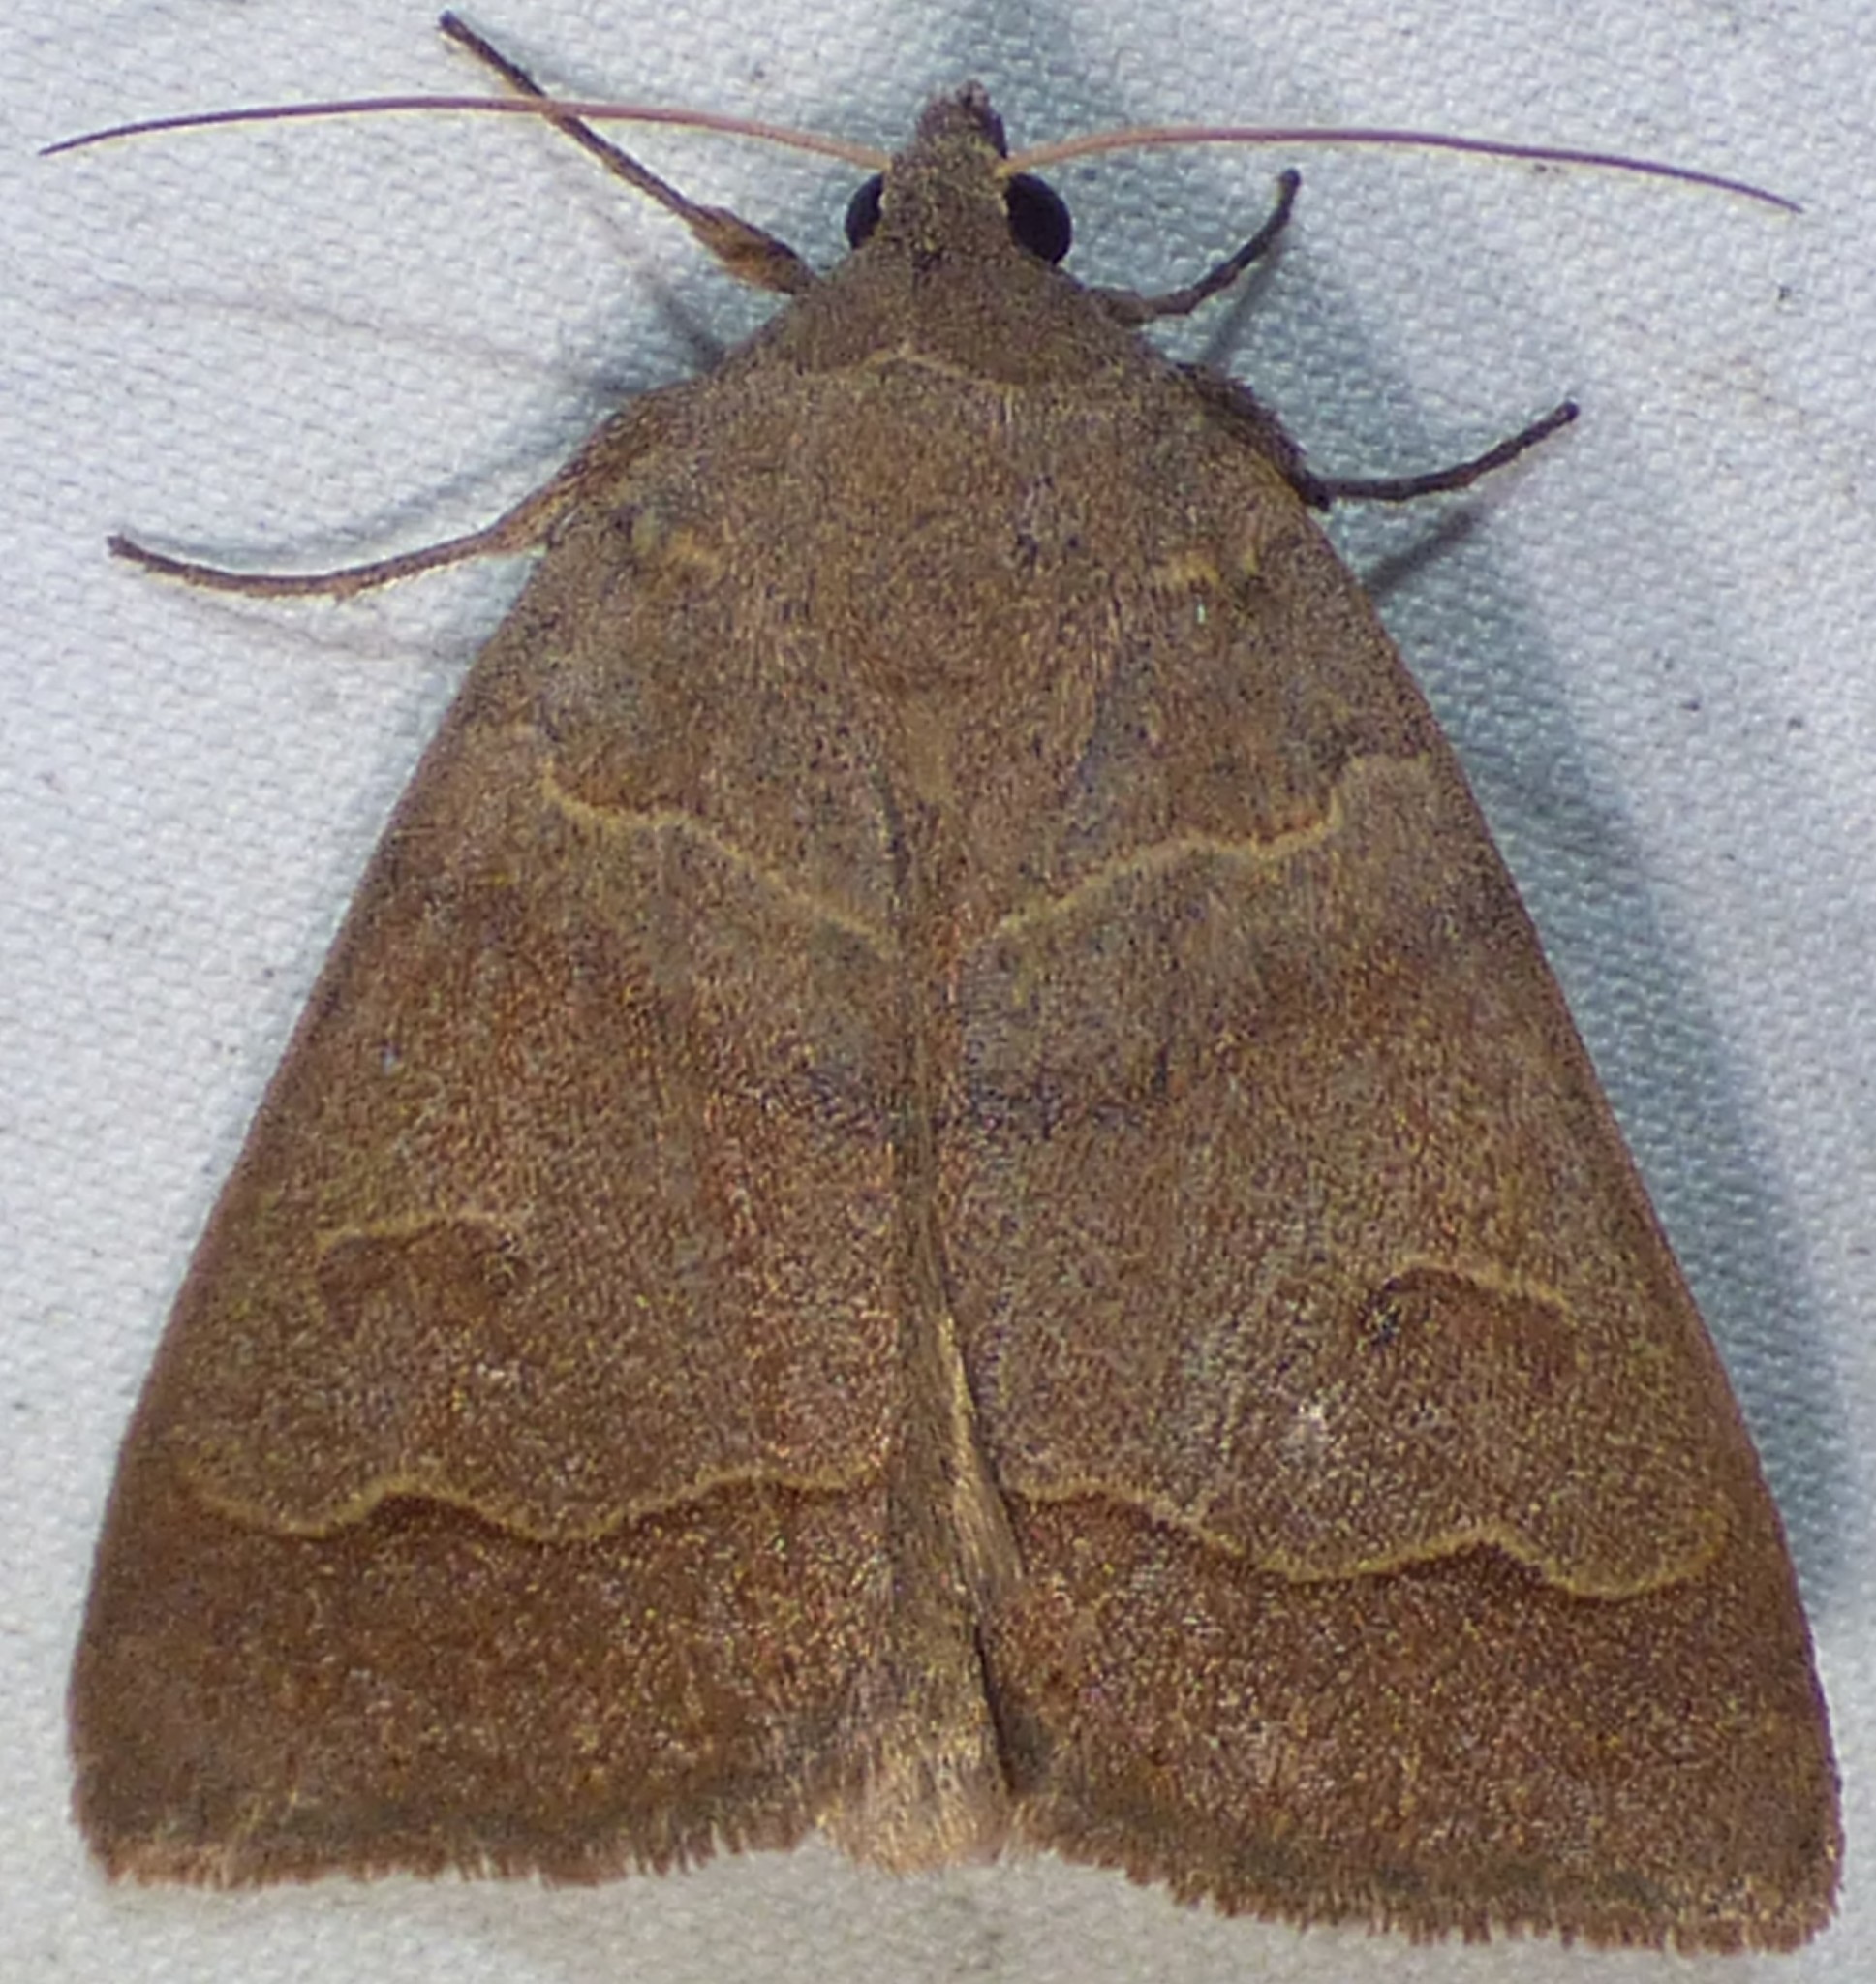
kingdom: Animalia
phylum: Arthropoda
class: Insecta
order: Lepidoptera
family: Erebidae
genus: Phoberia
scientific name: Phoberia atomaris
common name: Common oak moth
